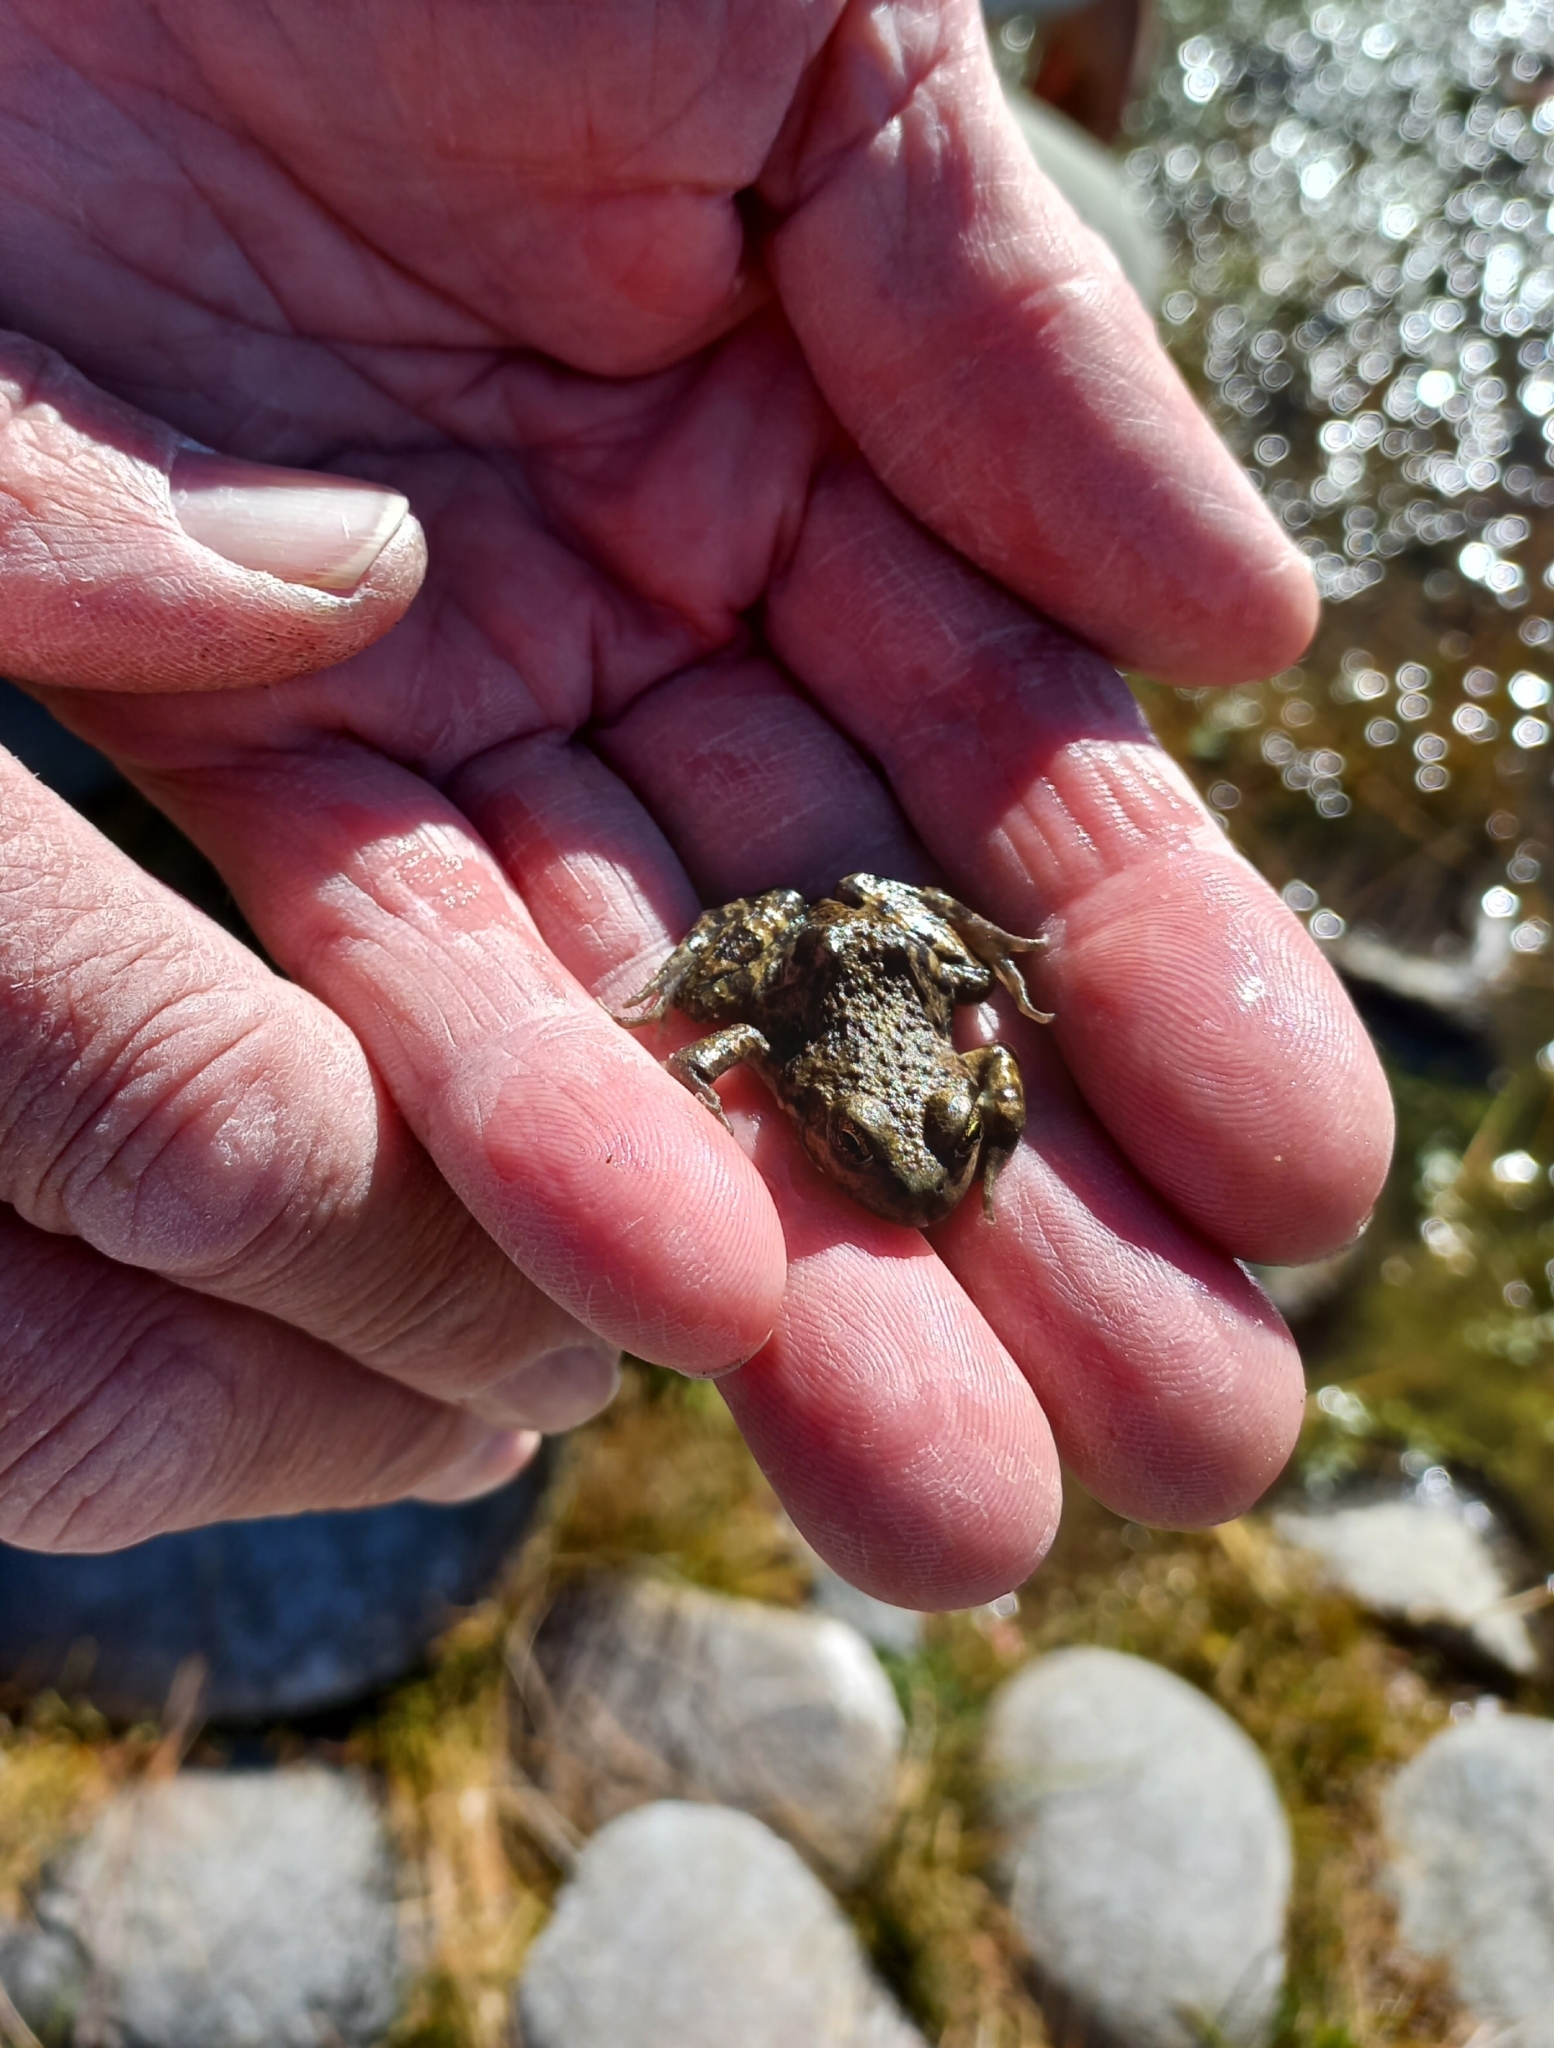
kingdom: Animalia
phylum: Chordata
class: Amphibia
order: Anura
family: Leptodactylidae
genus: Pleurodema
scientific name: Pleurodema bufoninum
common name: Large four-eyed frog
